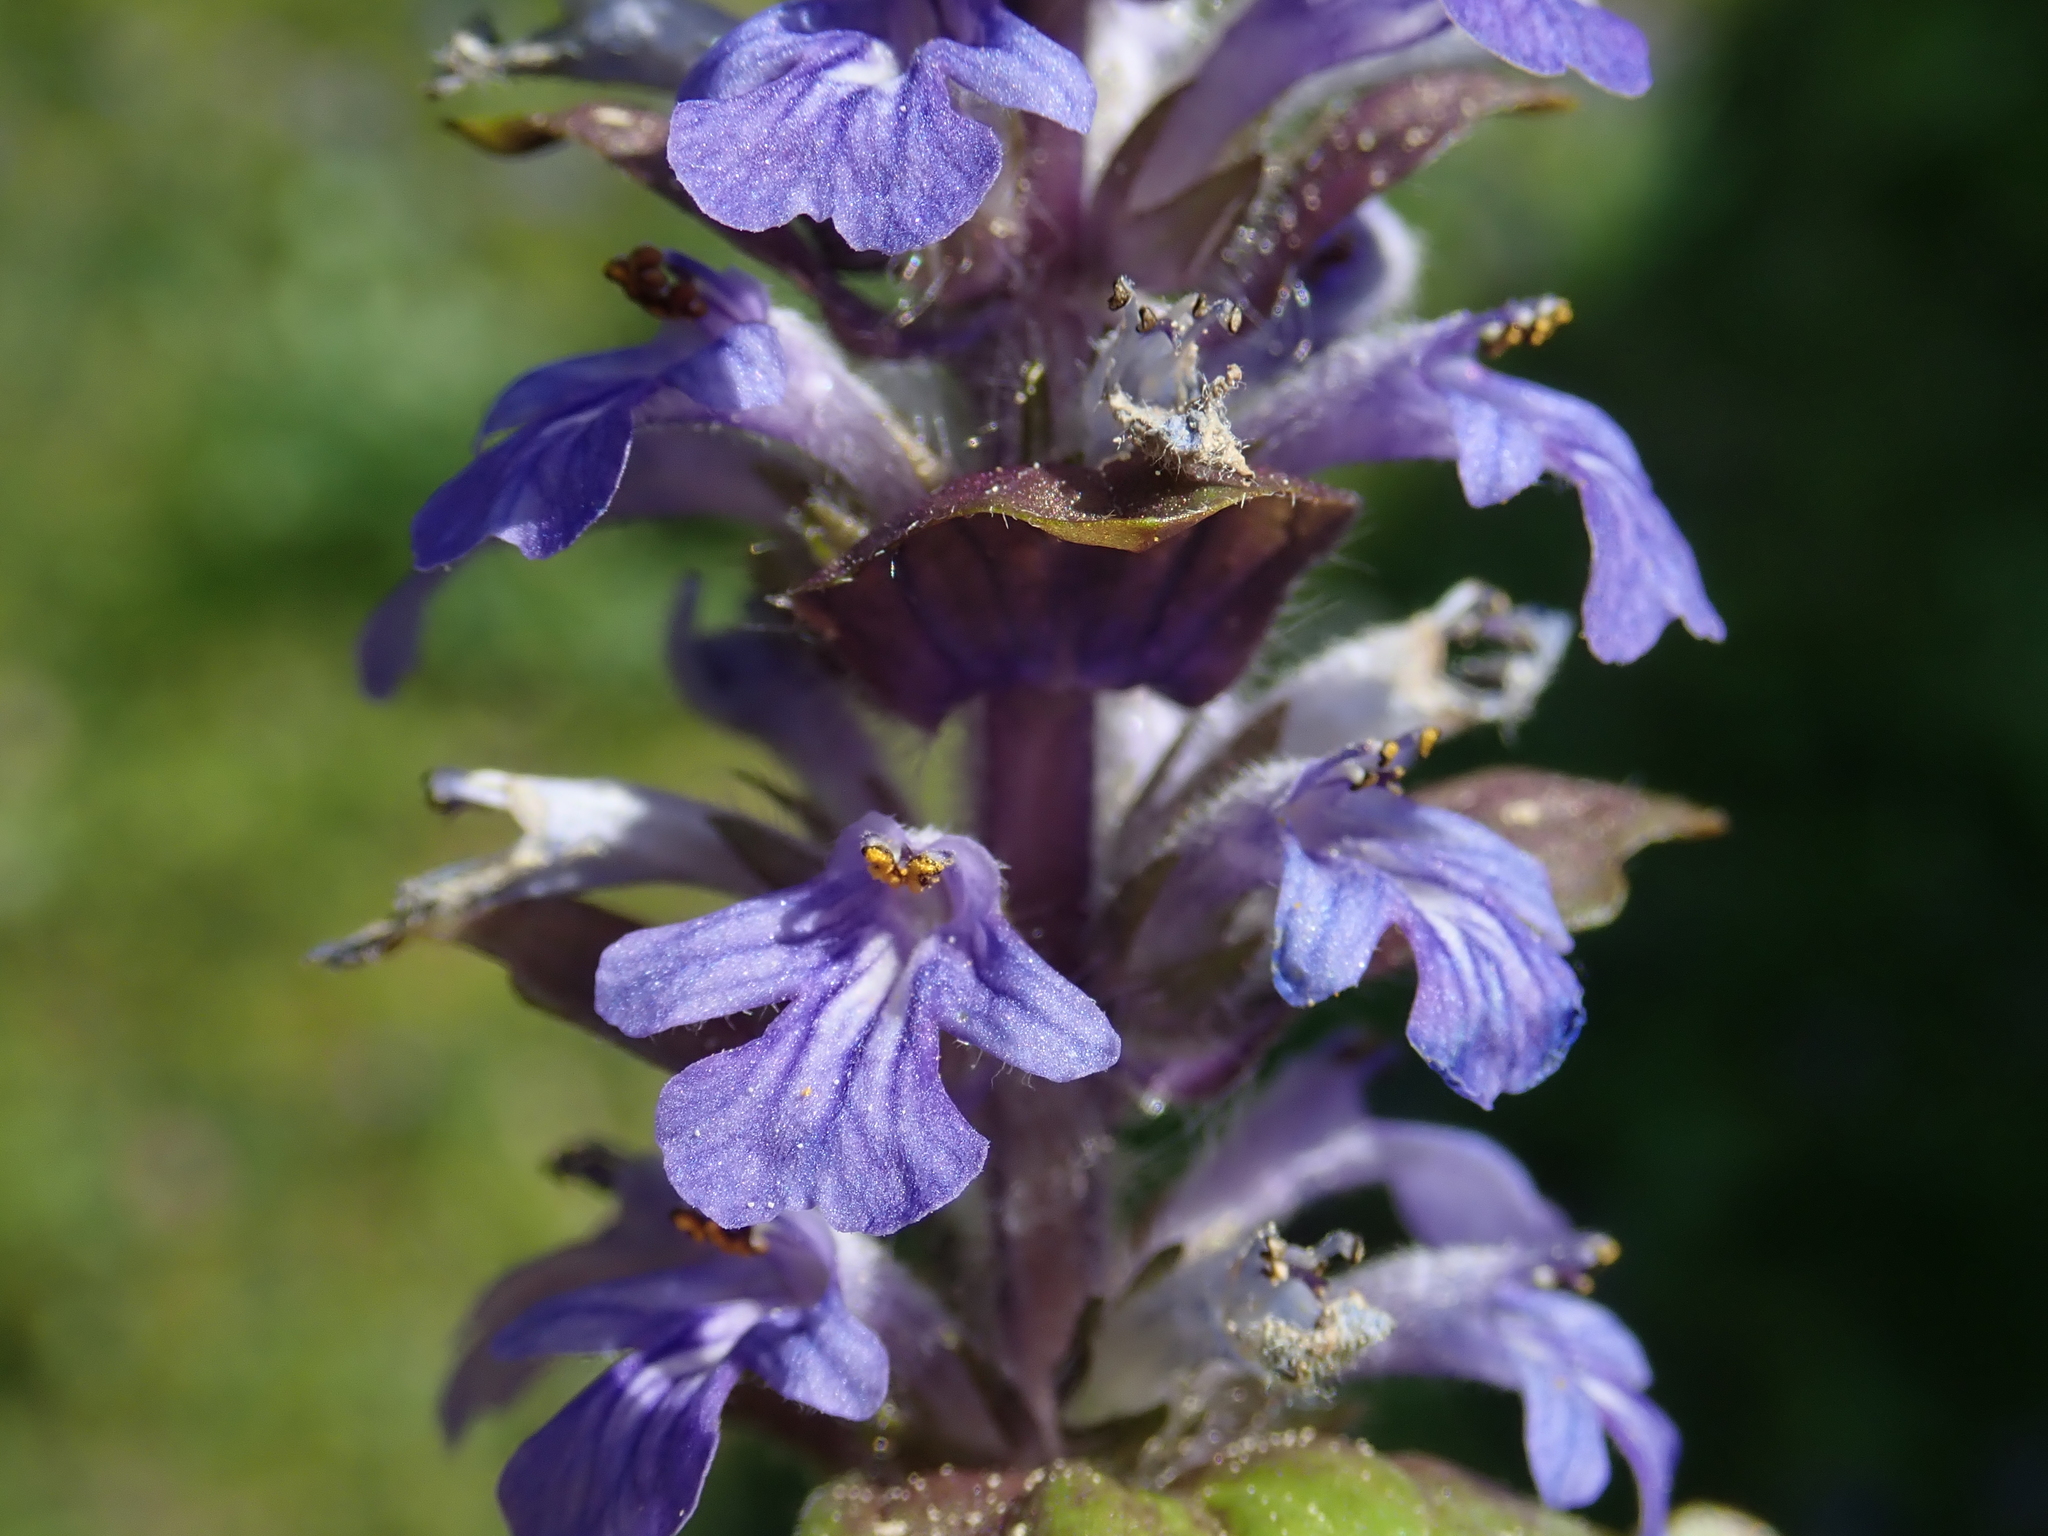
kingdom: Plantae
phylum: Tracheophyta
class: Magnoliopsida
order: Lamiales
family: Lamiaceae
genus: Ajuga
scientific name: Ajuga reptans
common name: Bugle
